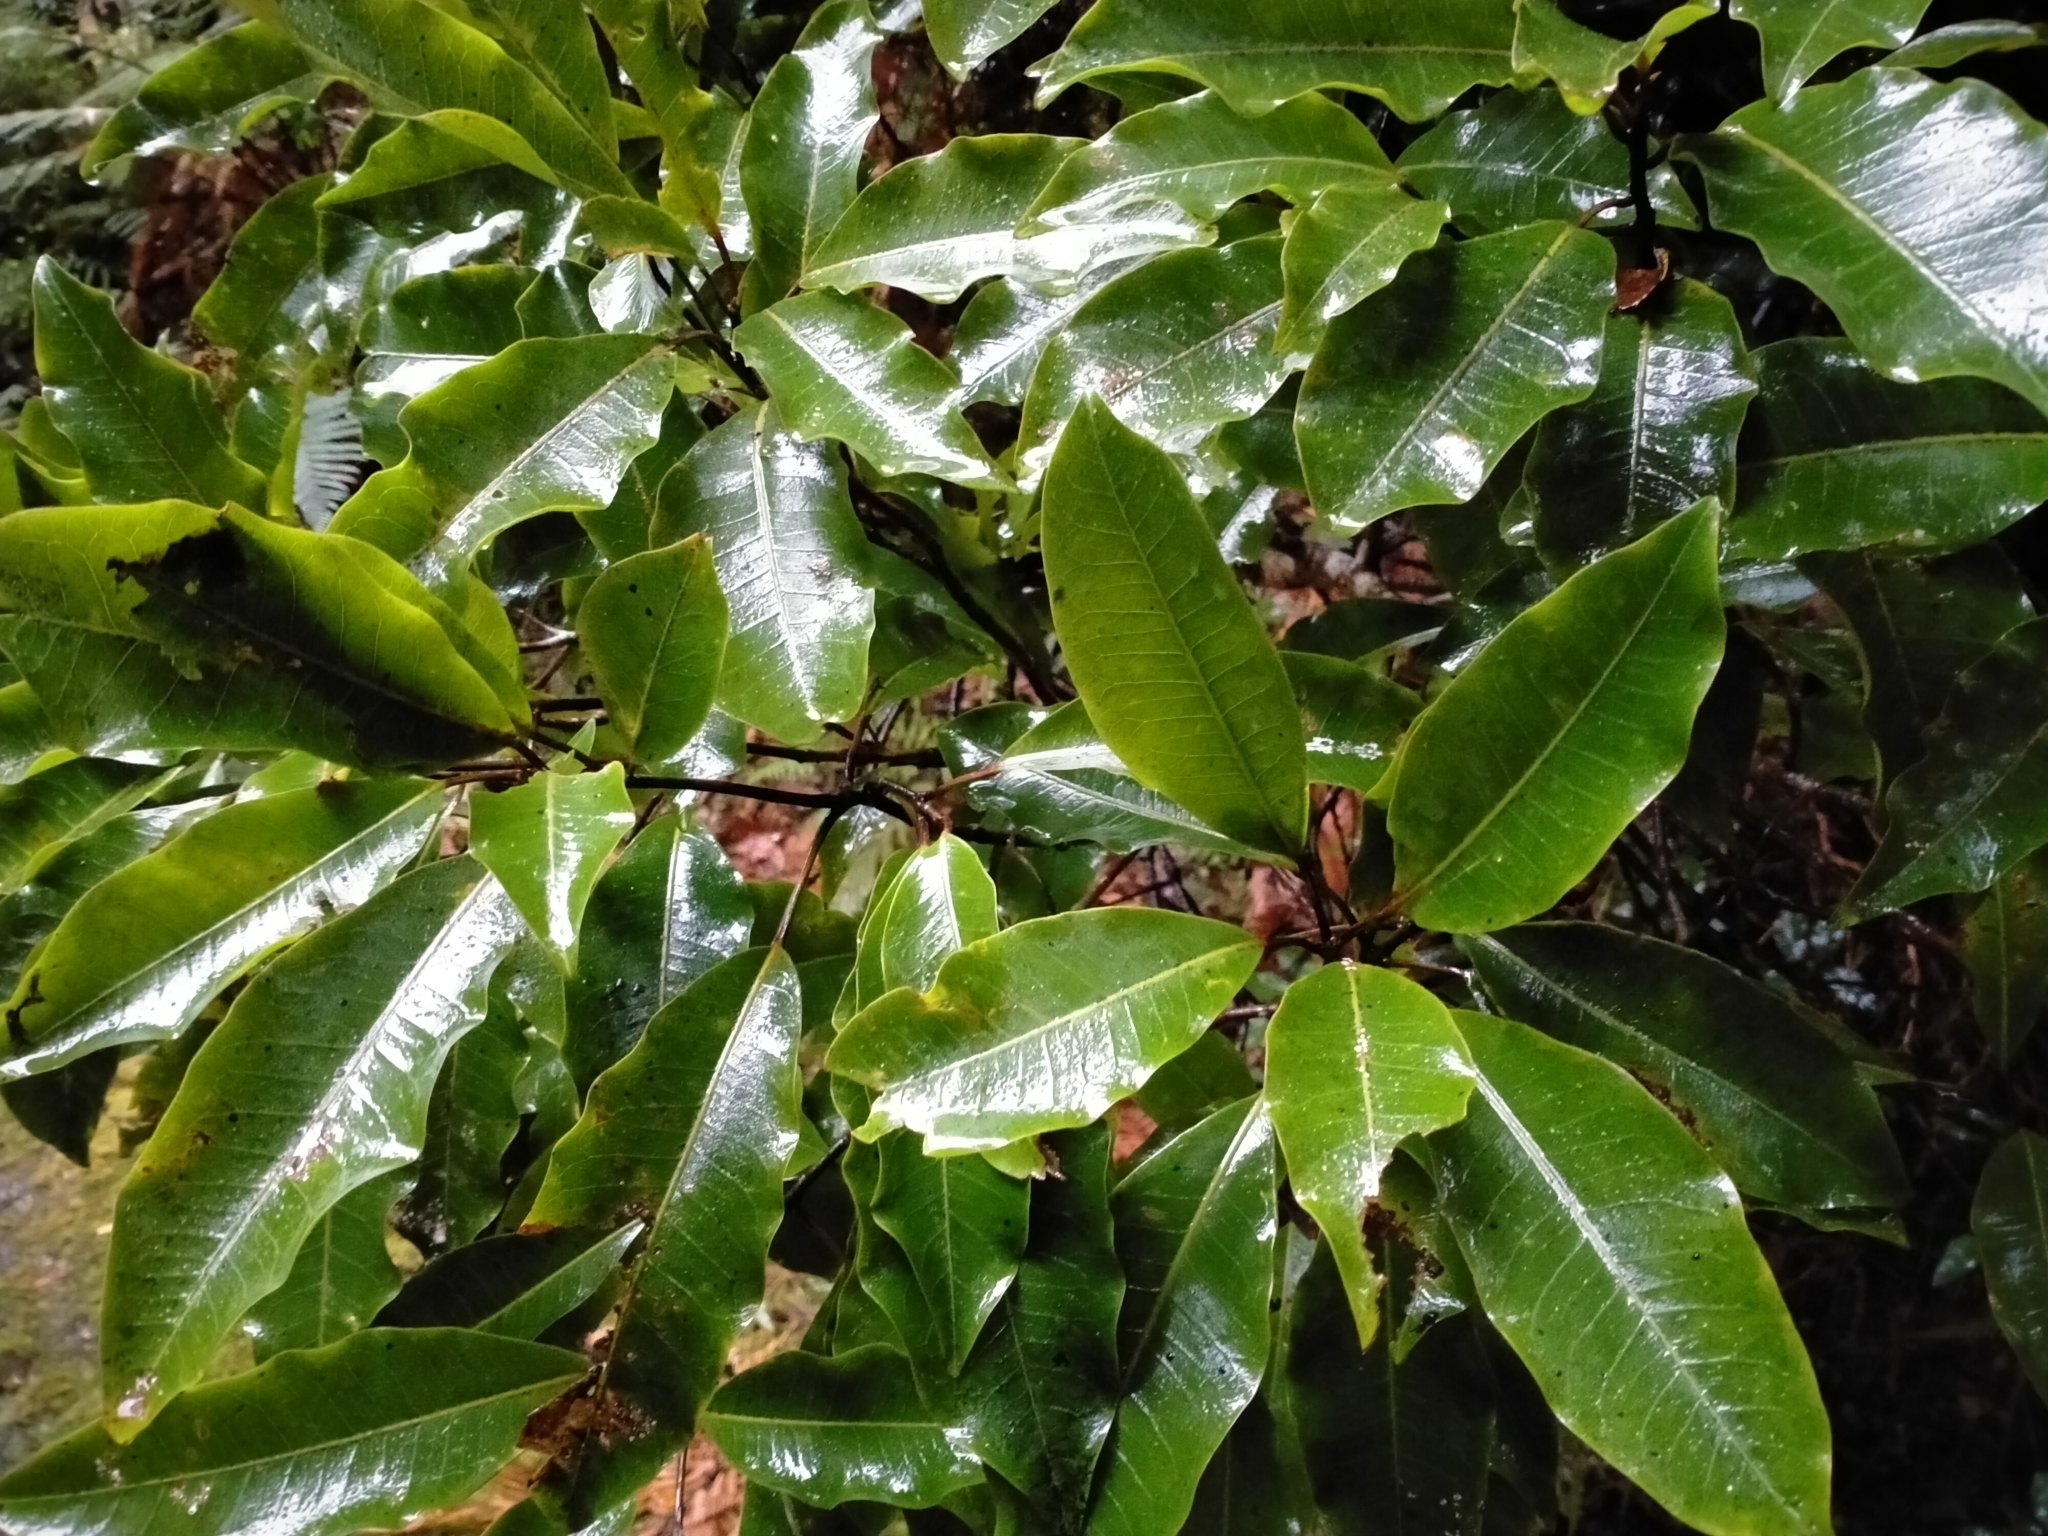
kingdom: Plantae
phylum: Tracheophyta
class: Magnoliopsida
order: Apiales
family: Araliaceae
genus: Raukaua
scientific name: Raukaua edgerleyi
